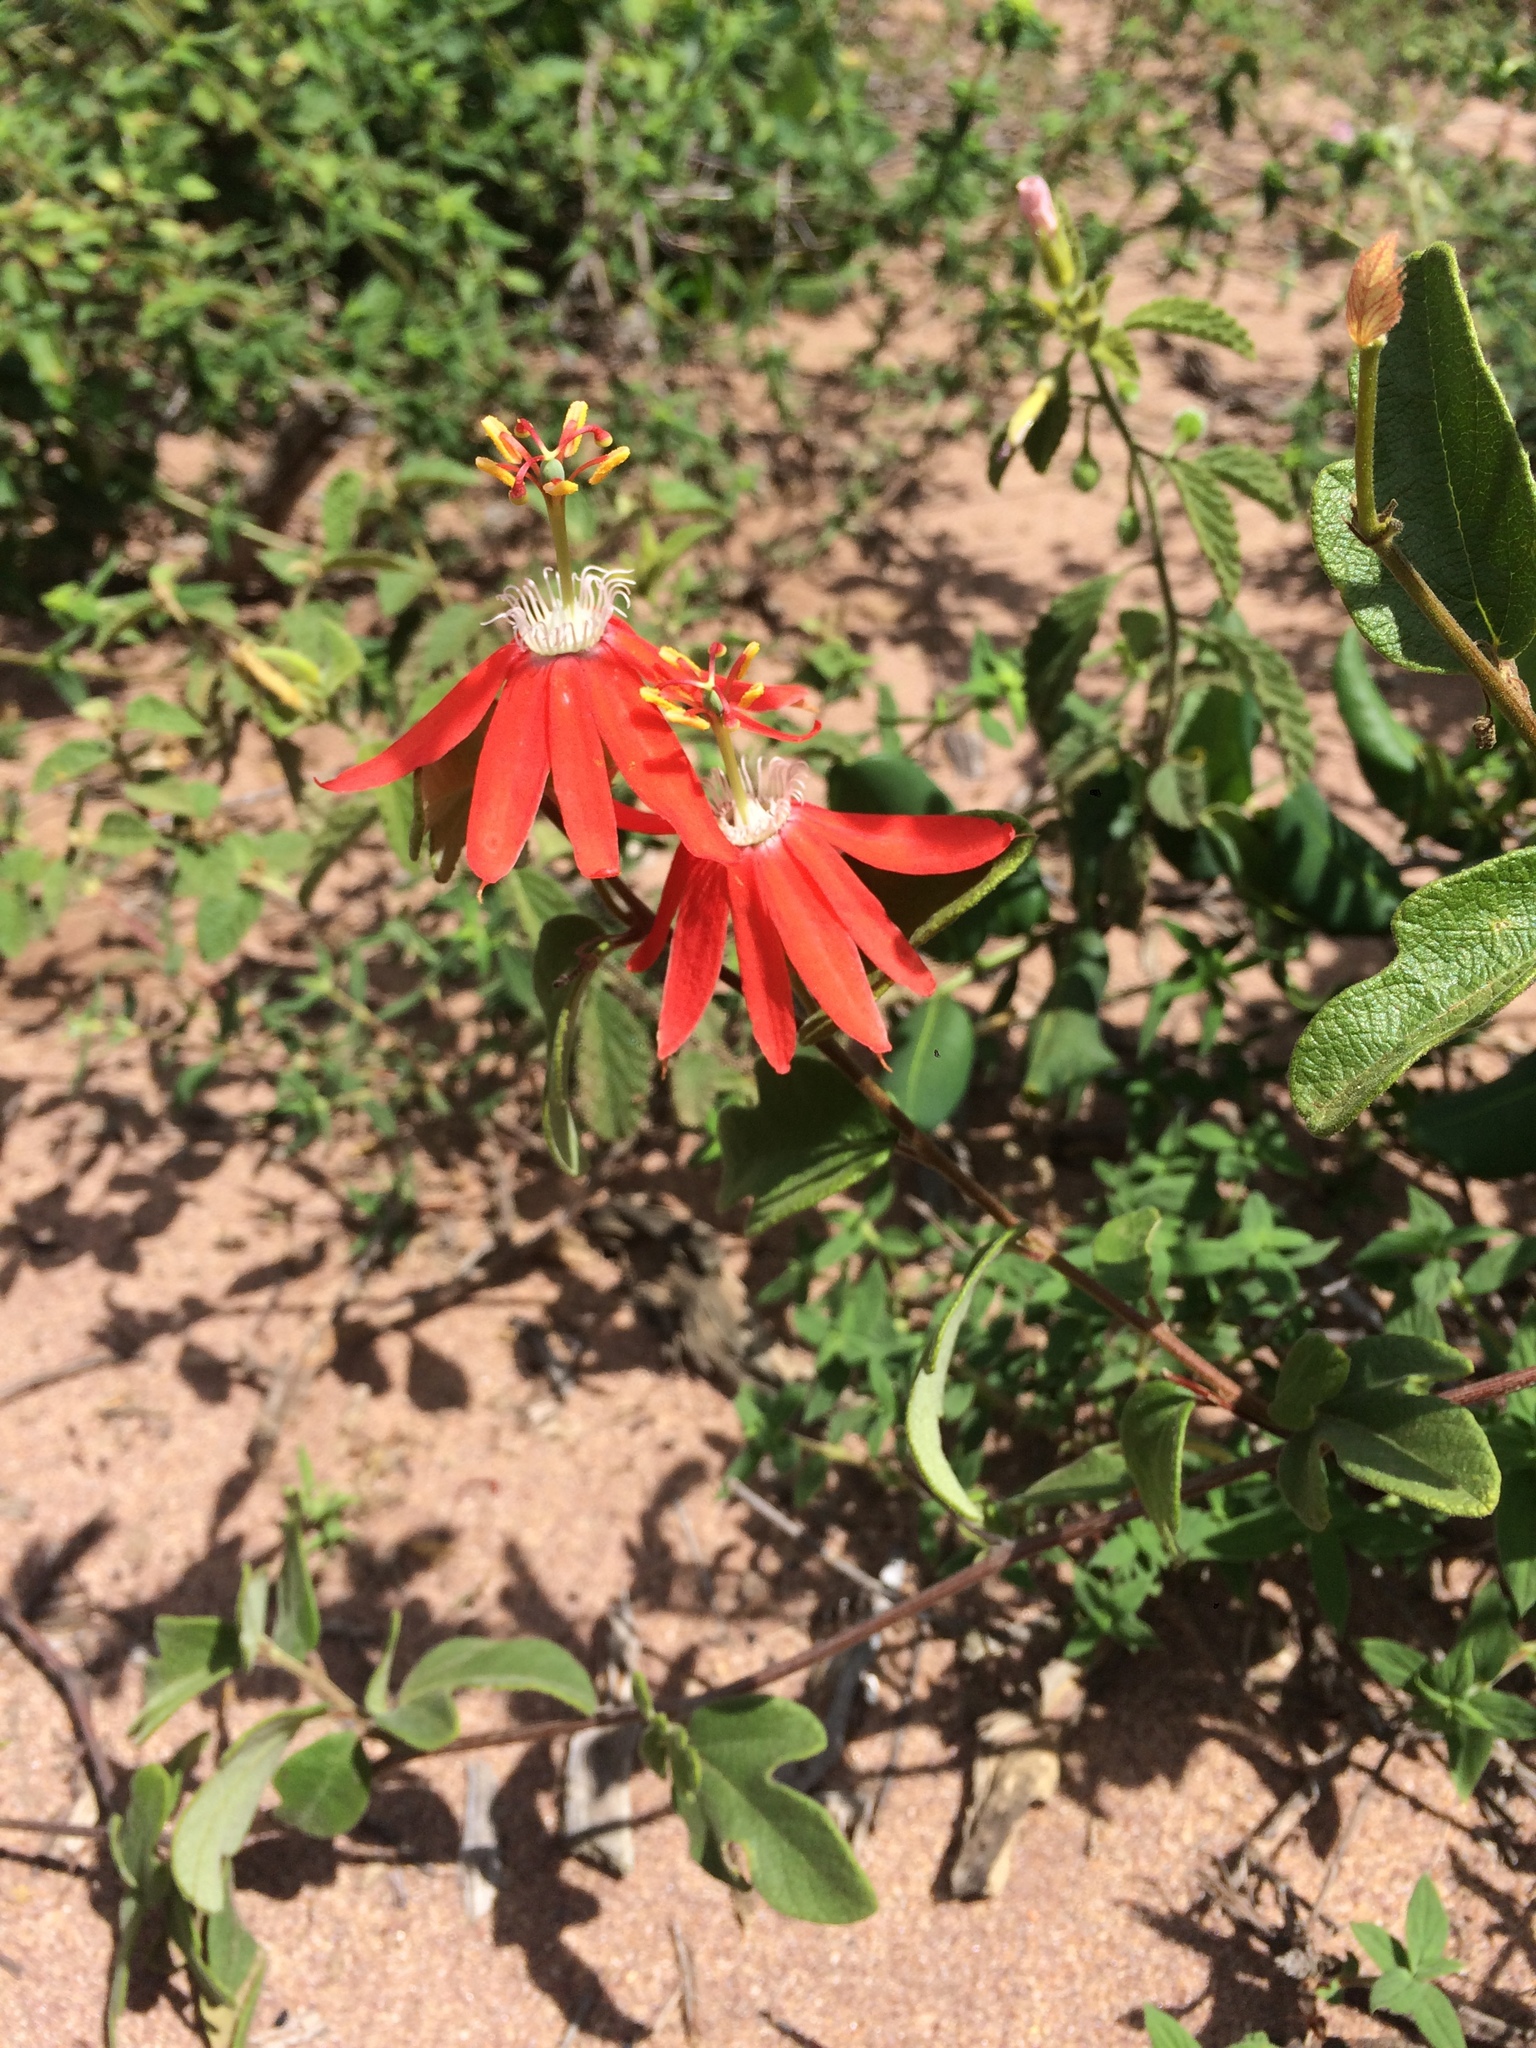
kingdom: Plantae
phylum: Tracheophyta
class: Magnoliopsida
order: Malpighiales
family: Passifloraceae
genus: Passiflora
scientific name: Passiflora luetzelburgii
